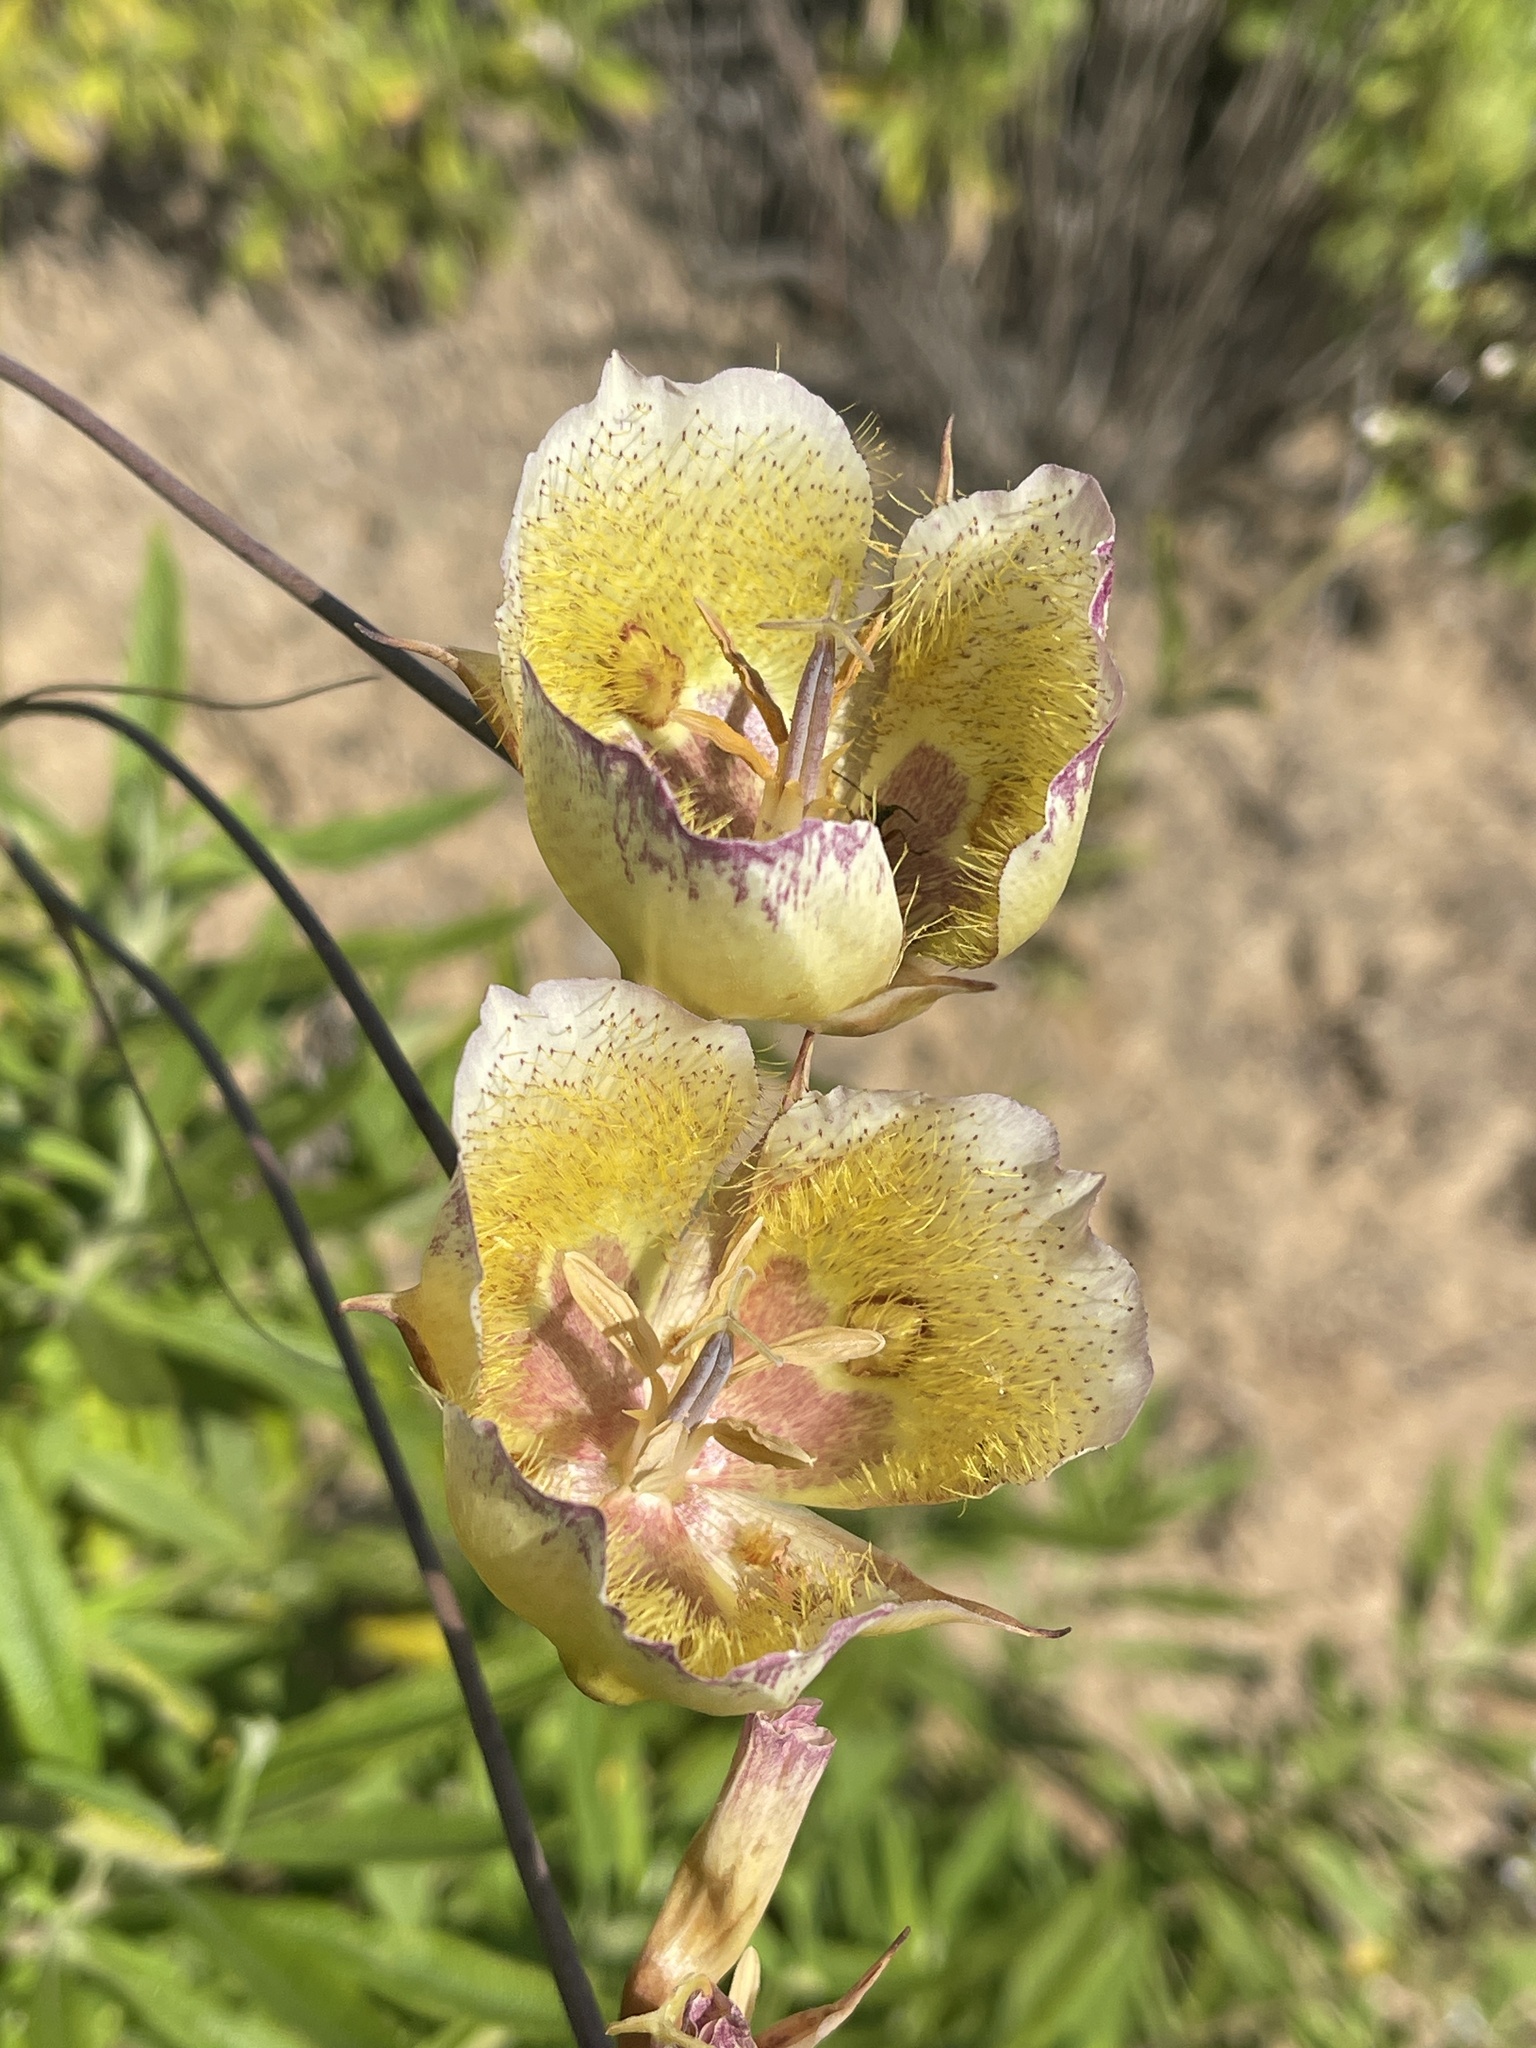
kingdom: Plantae
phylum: Tracheophyta
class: Liliopsida
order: Liliales
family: Liliaceae
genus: Calochortus
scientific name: Calochortus weedii
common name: Weed's mariposa-lily
